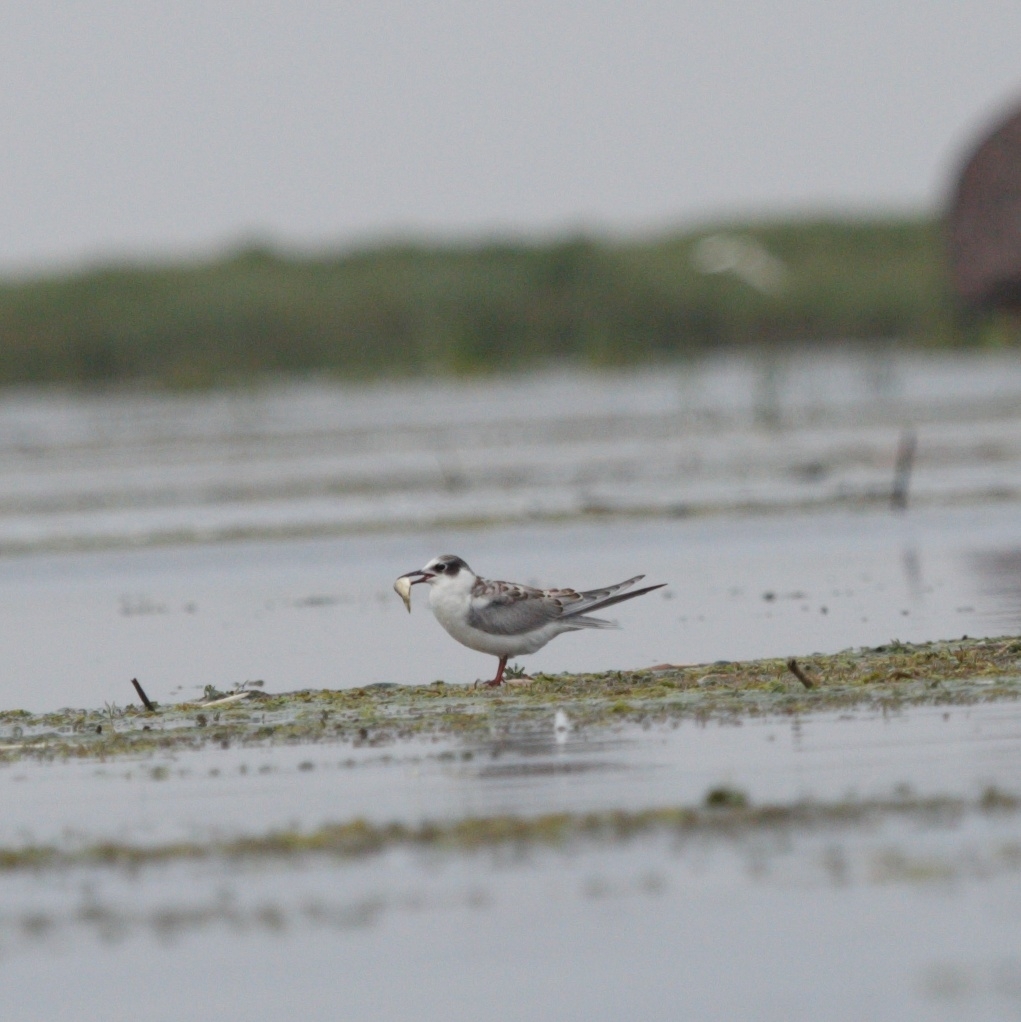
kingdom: Animalia
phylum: Chordata
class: Aves
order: Charadriiformes
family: Laridae
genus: Chlidonias
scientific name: Chlidonias hybrida
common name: Whiskered tern
